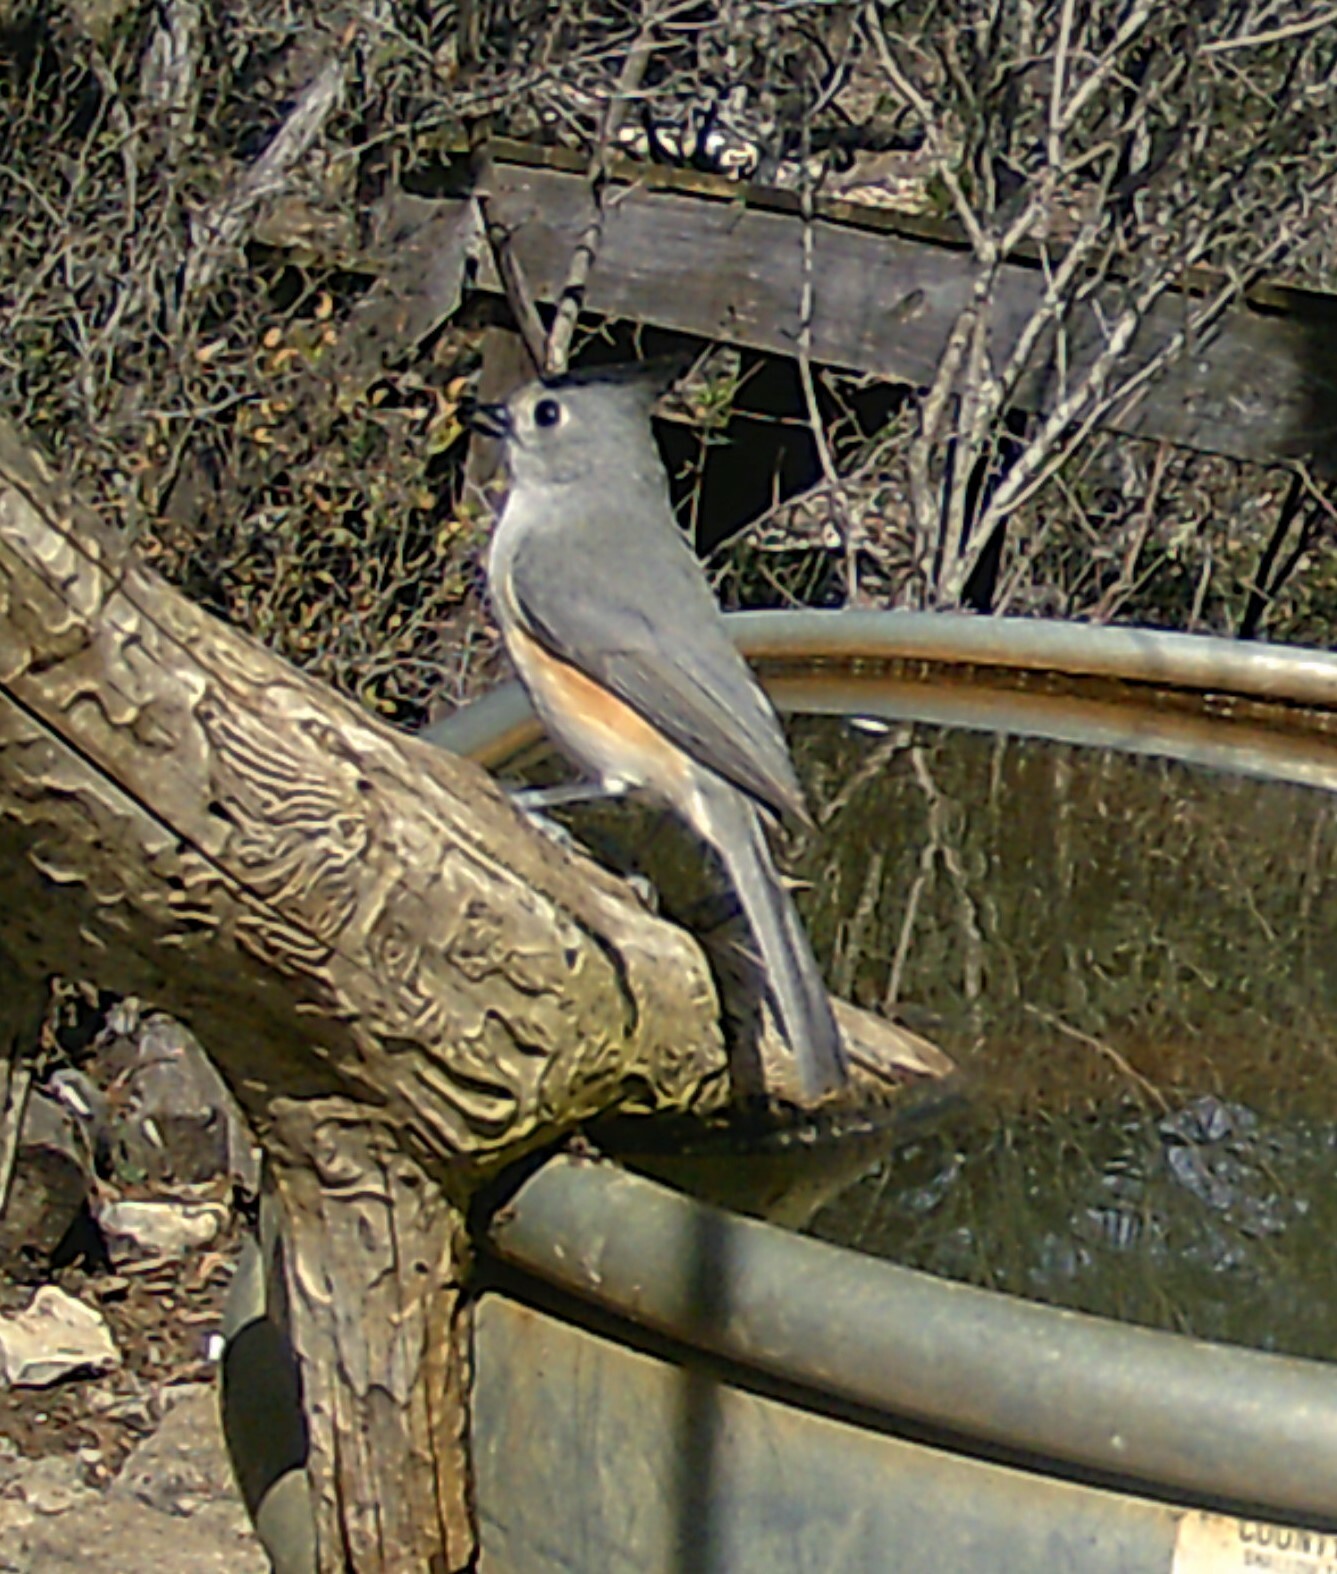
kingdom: Animalia
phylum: Chordata
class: Aves
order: Passeriformes
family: Paridae
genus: Baeolophus
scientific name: Baeolophus atricristatus
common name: Black-crested titmouse
